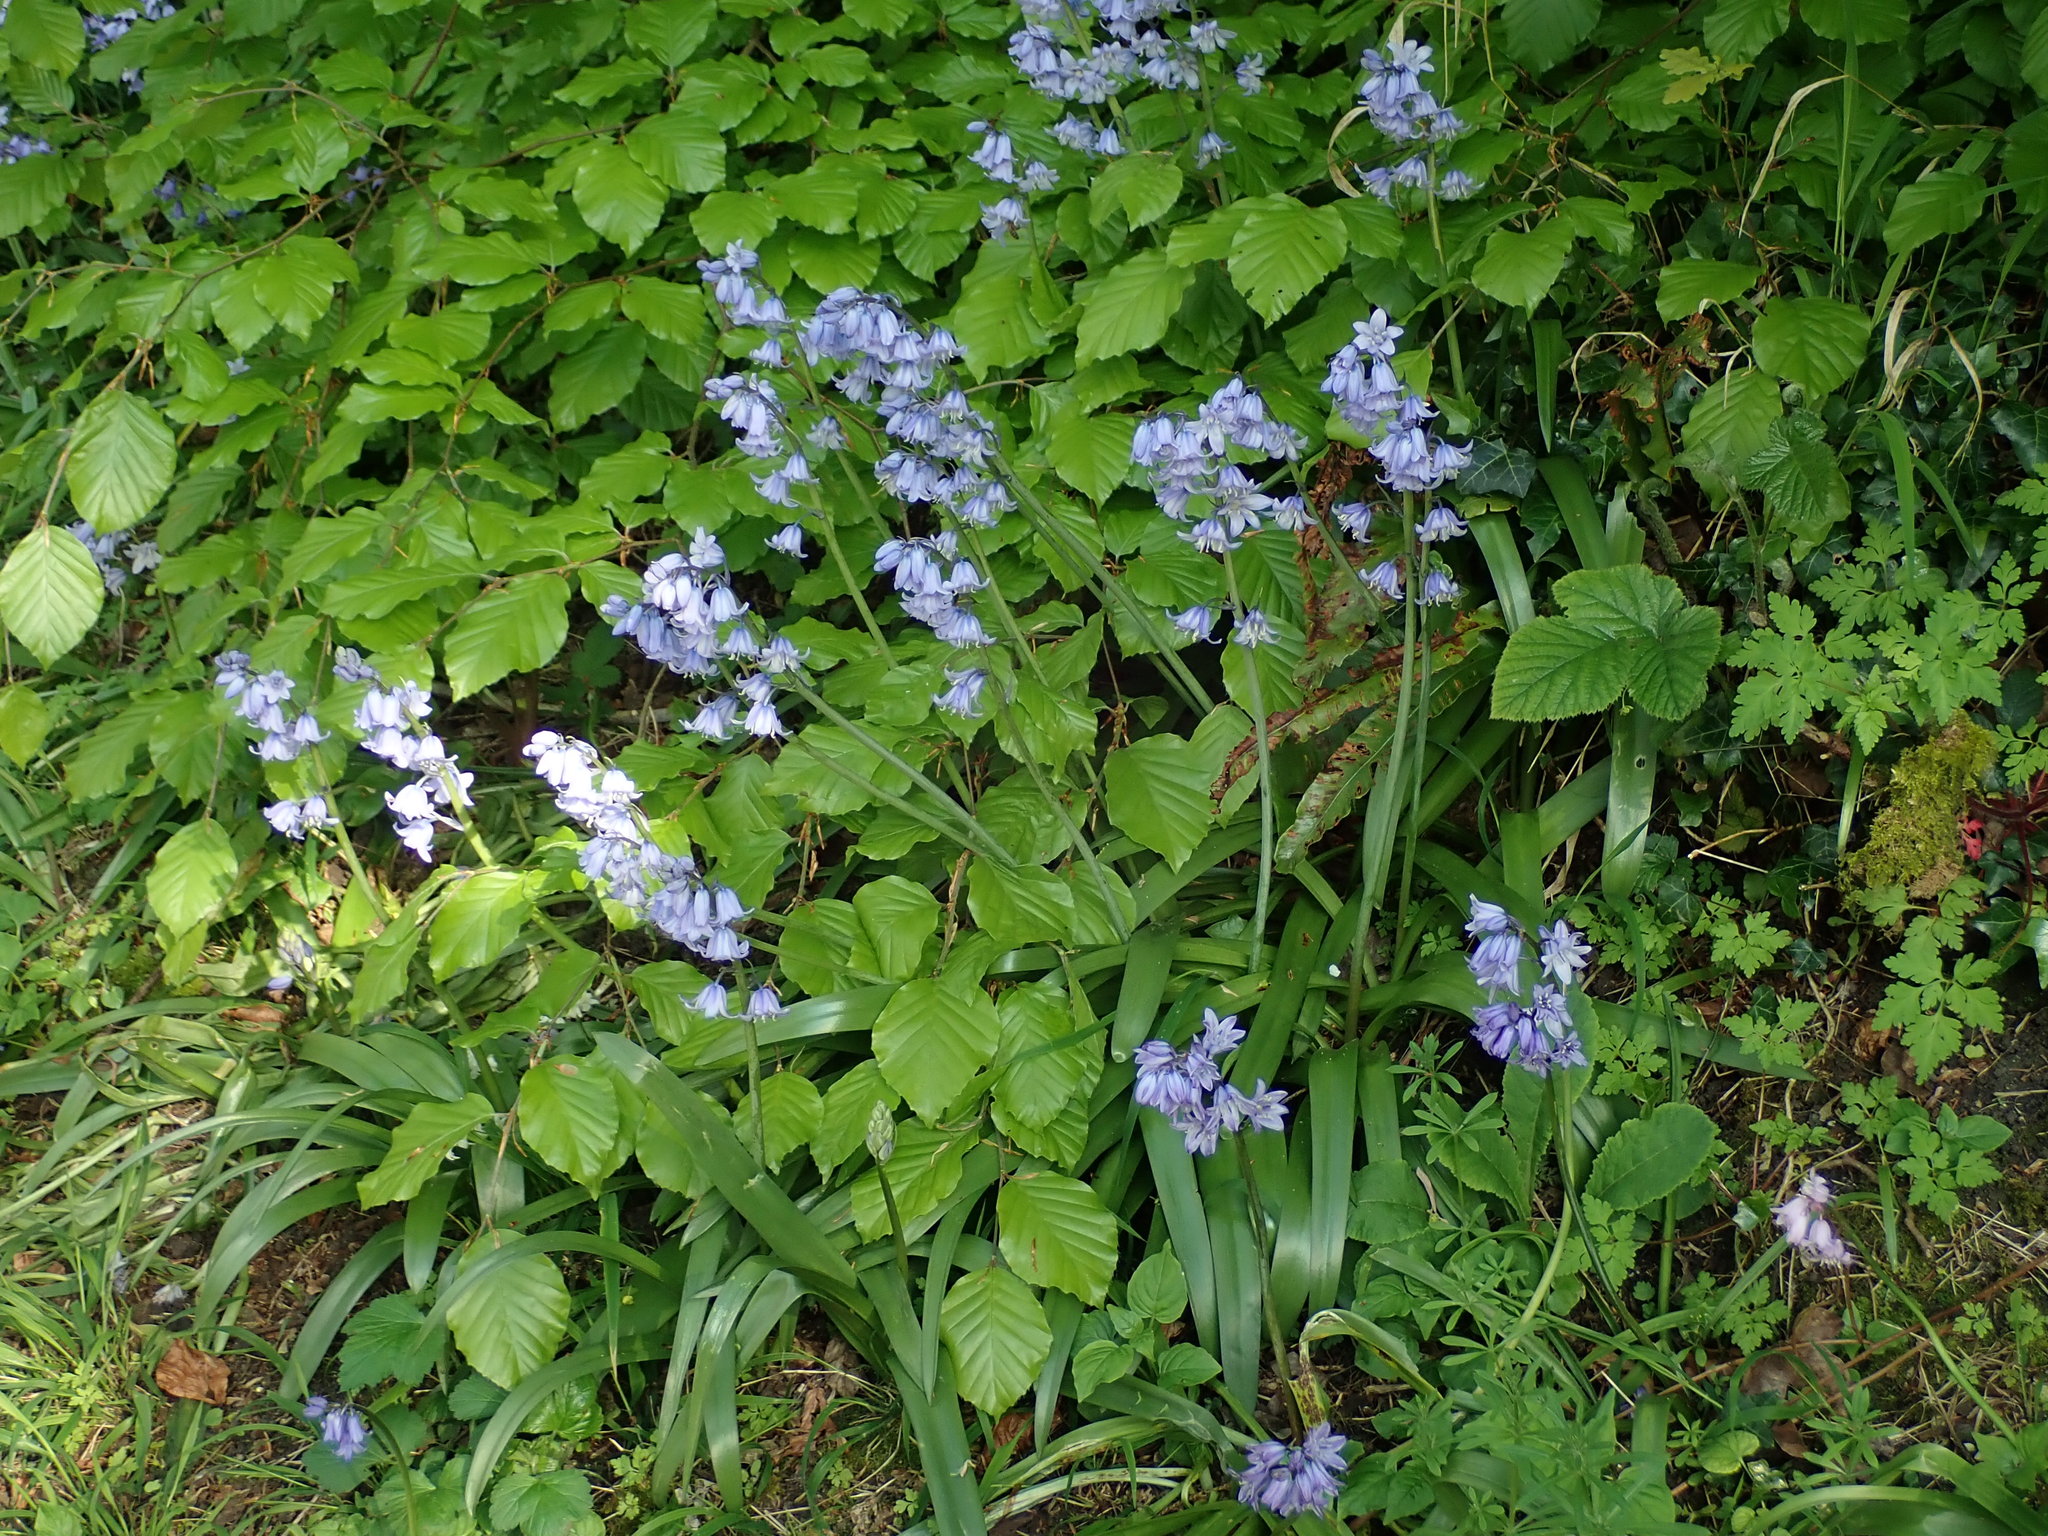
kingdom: Plantae
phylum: Tracheophyta
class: Liliopsida
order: Asparagales
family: Asparagaceae
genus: Hyacinthoides
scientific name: Hyacinthoides massartiana
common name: Hyacinthoides
